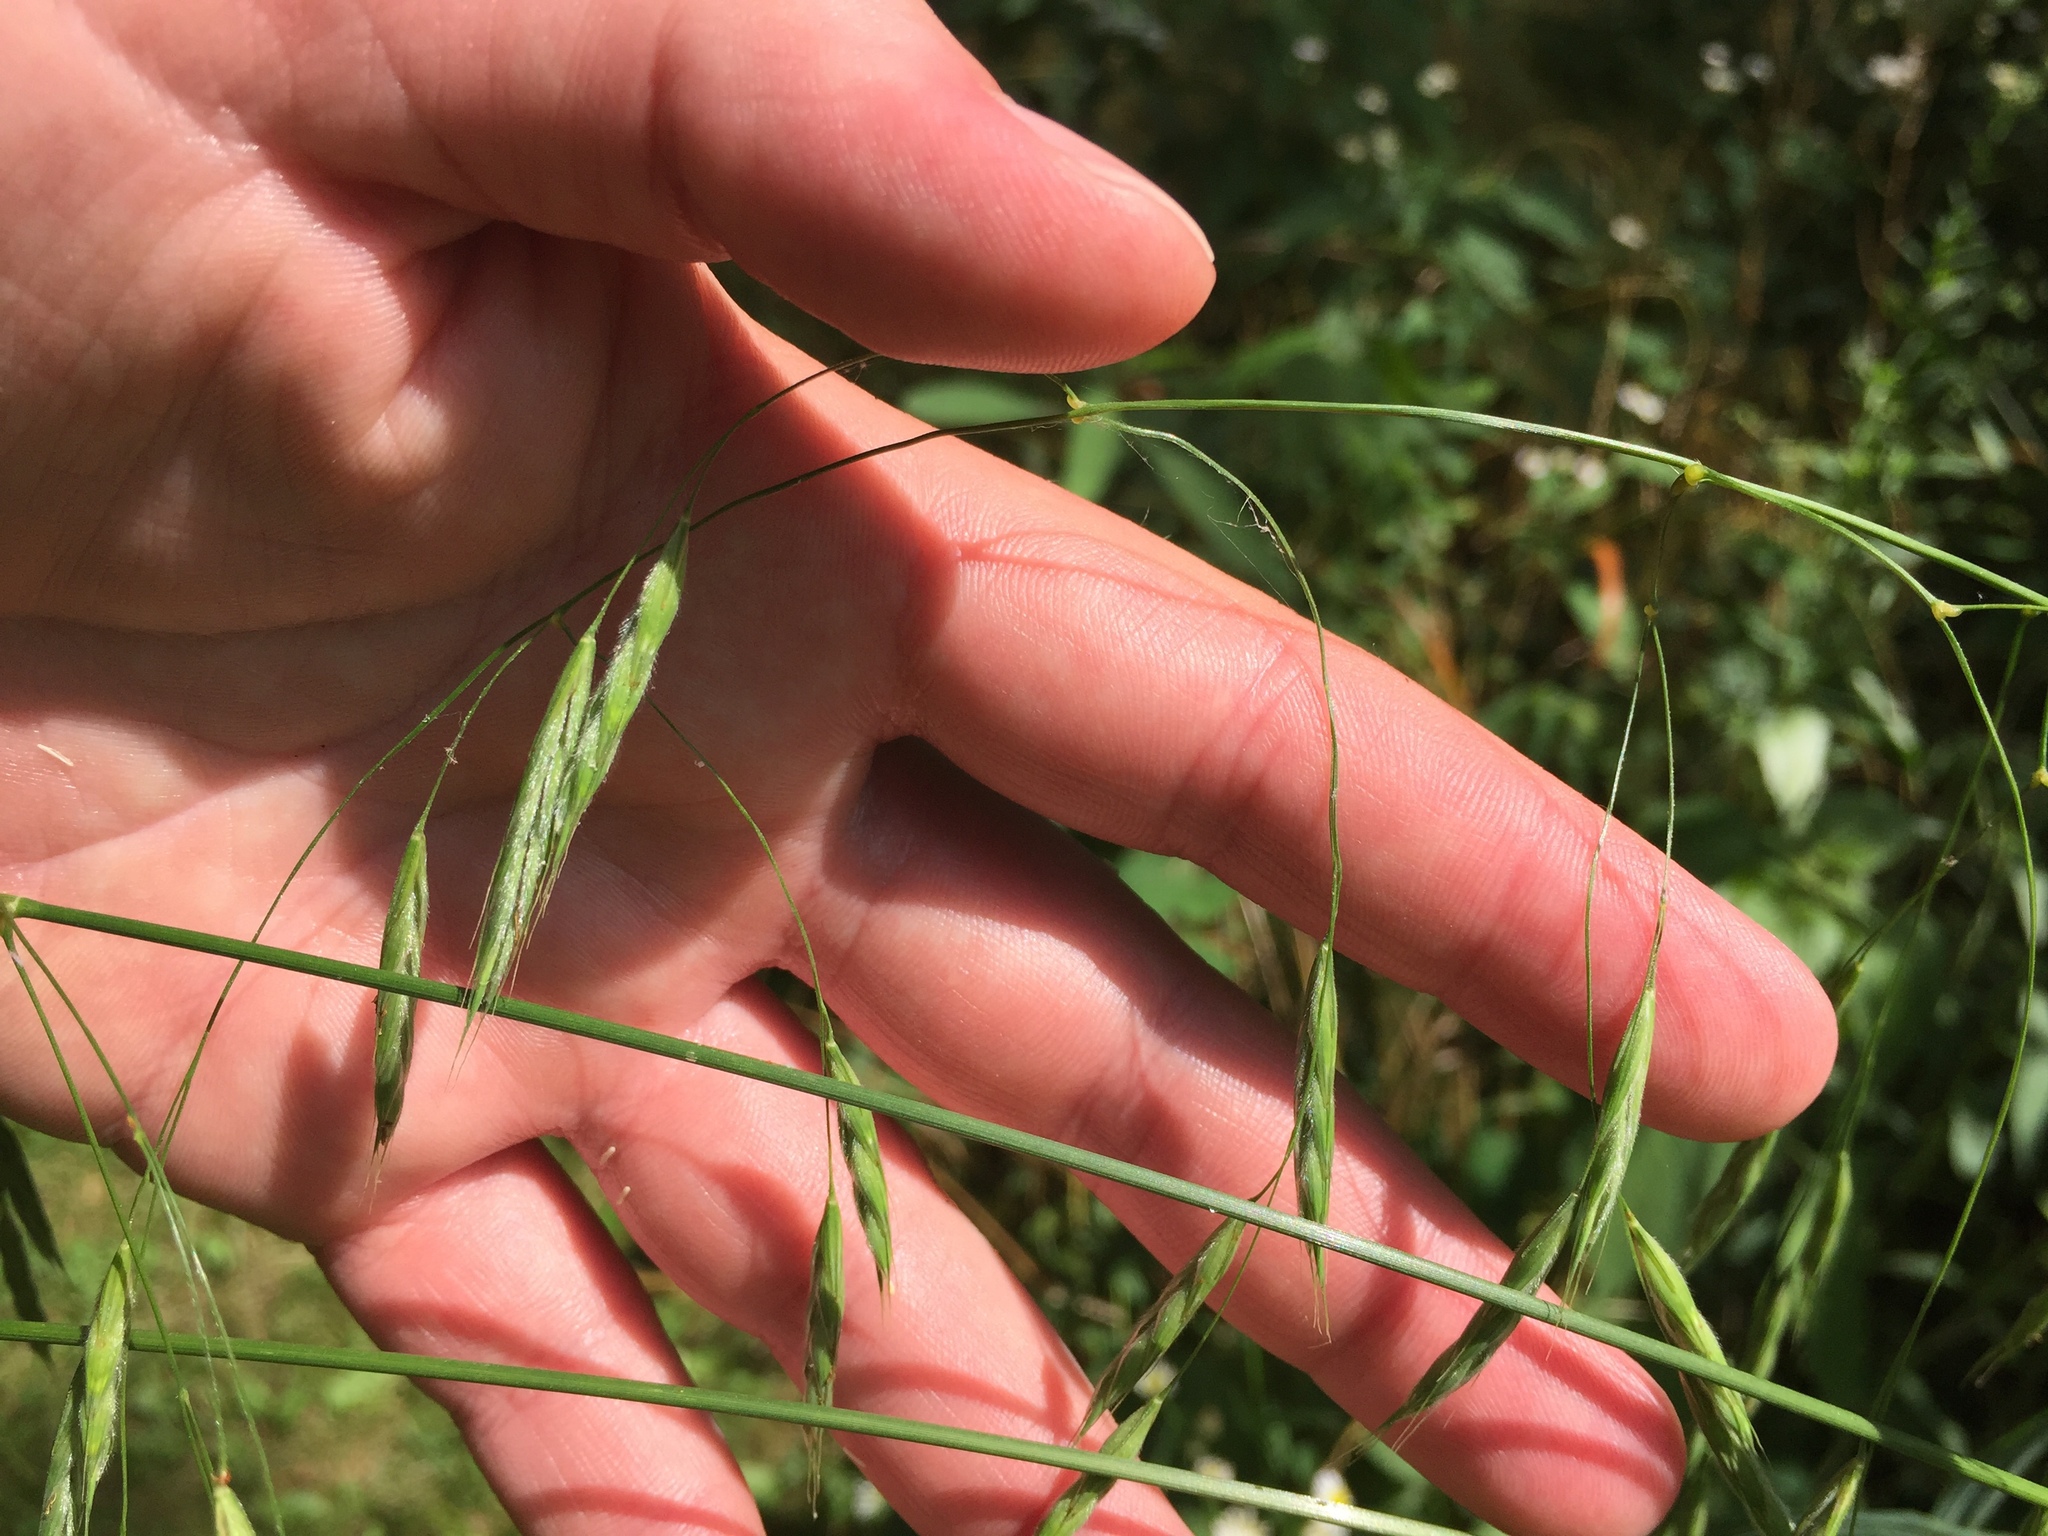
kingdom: Plantae
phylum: Tracheophyta
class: Liliopsida
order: Poales
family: Poaceae
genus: Bromus
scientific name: Bromus pubescens
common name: Hairy wood brome grass
